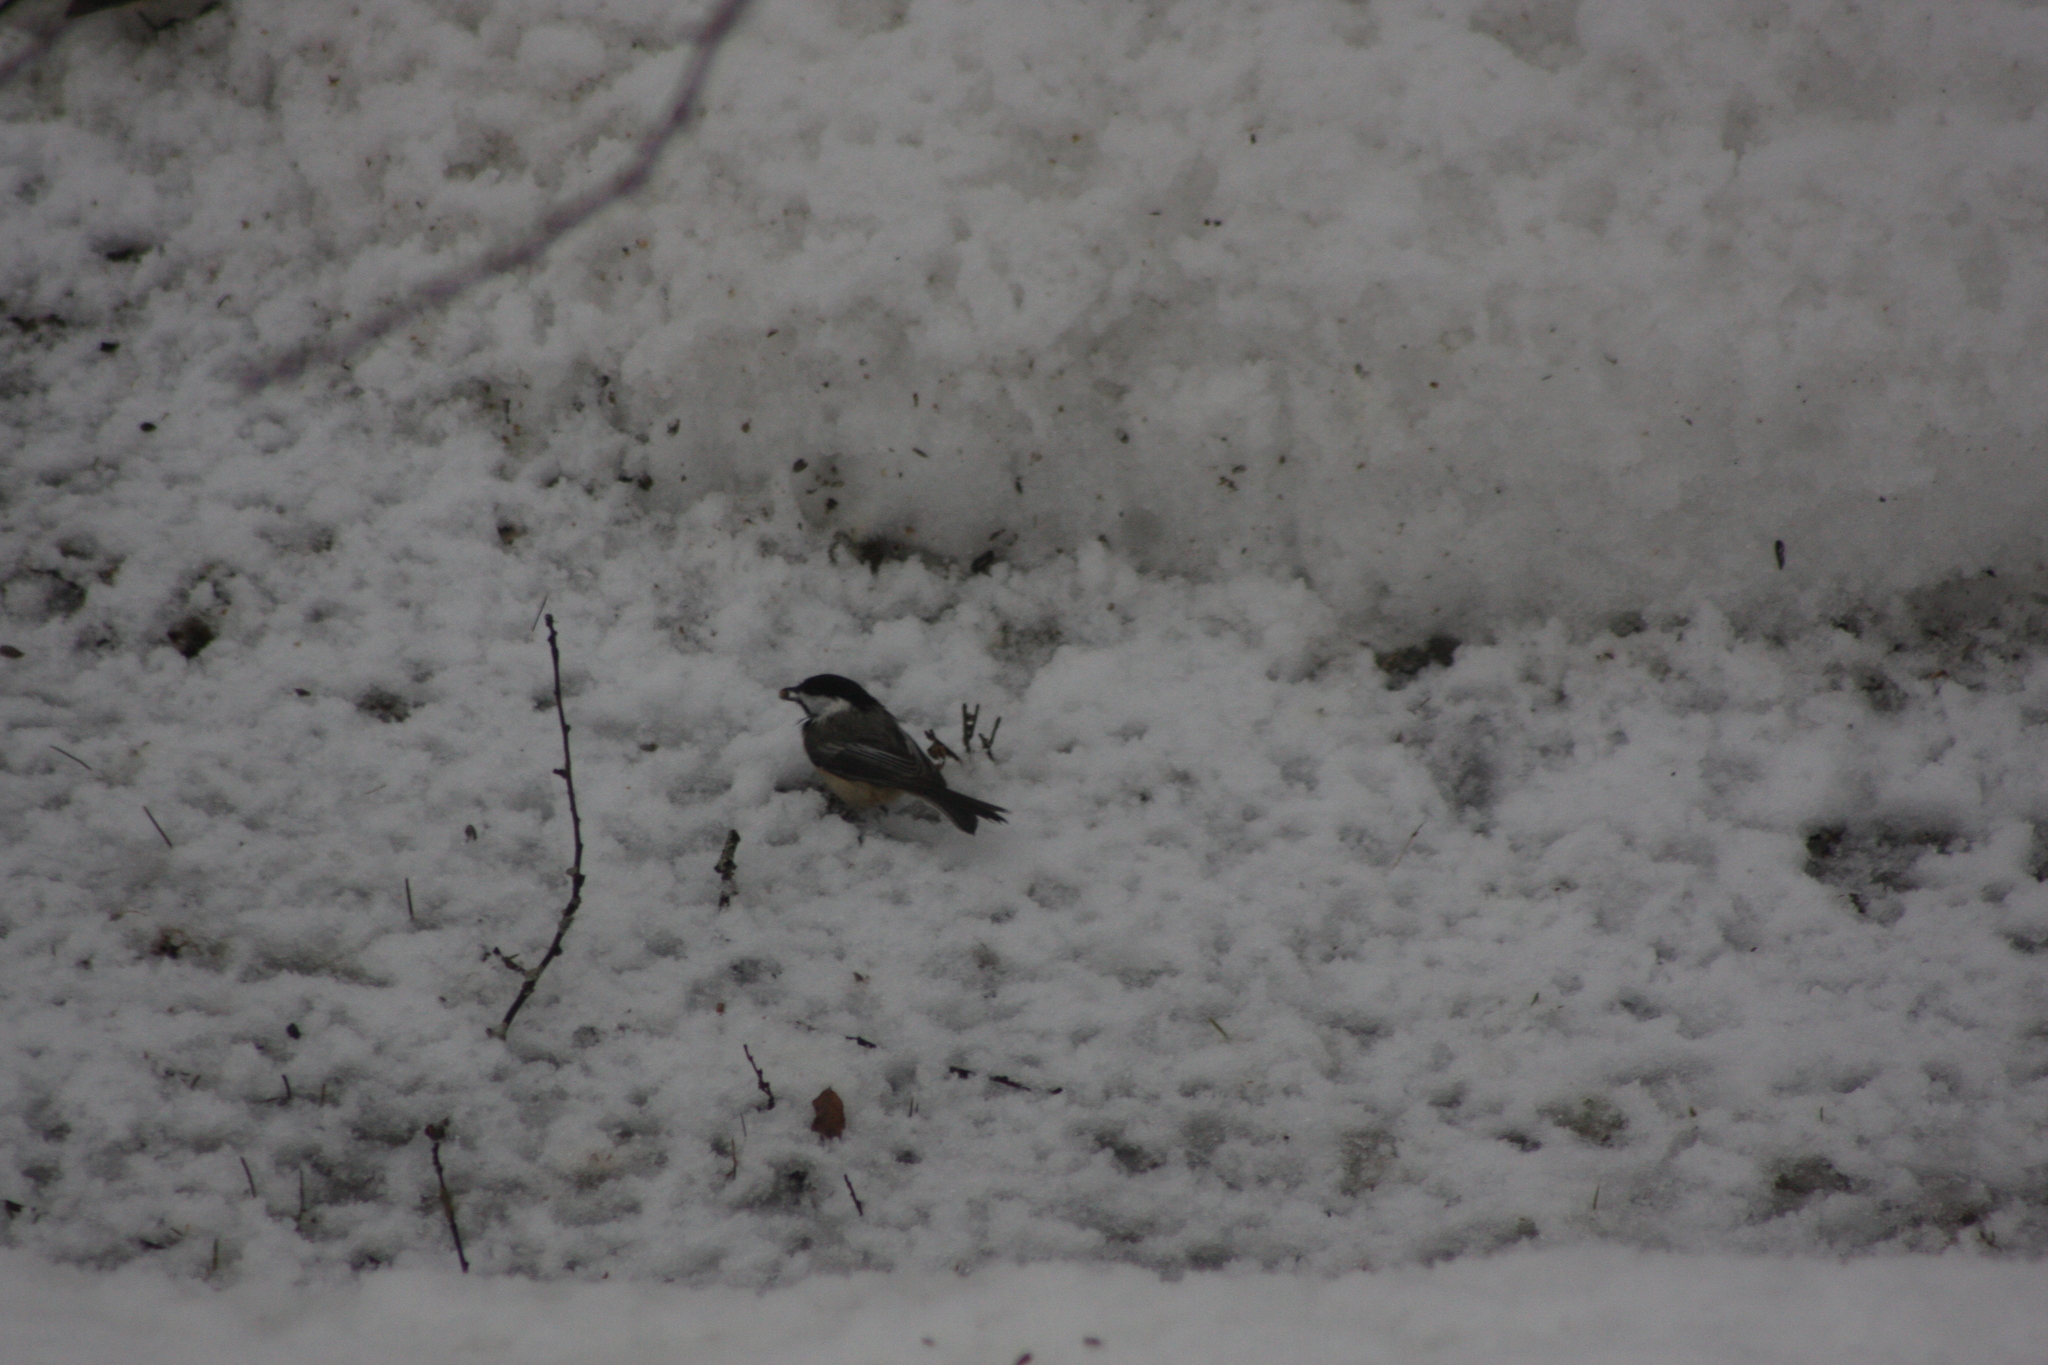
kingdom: Animalia
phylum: Chordata
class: Aves
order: Passeriformes
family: Paridae
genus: Poecile
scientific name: Poecile atricapillus
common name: Black-capped chickadee
